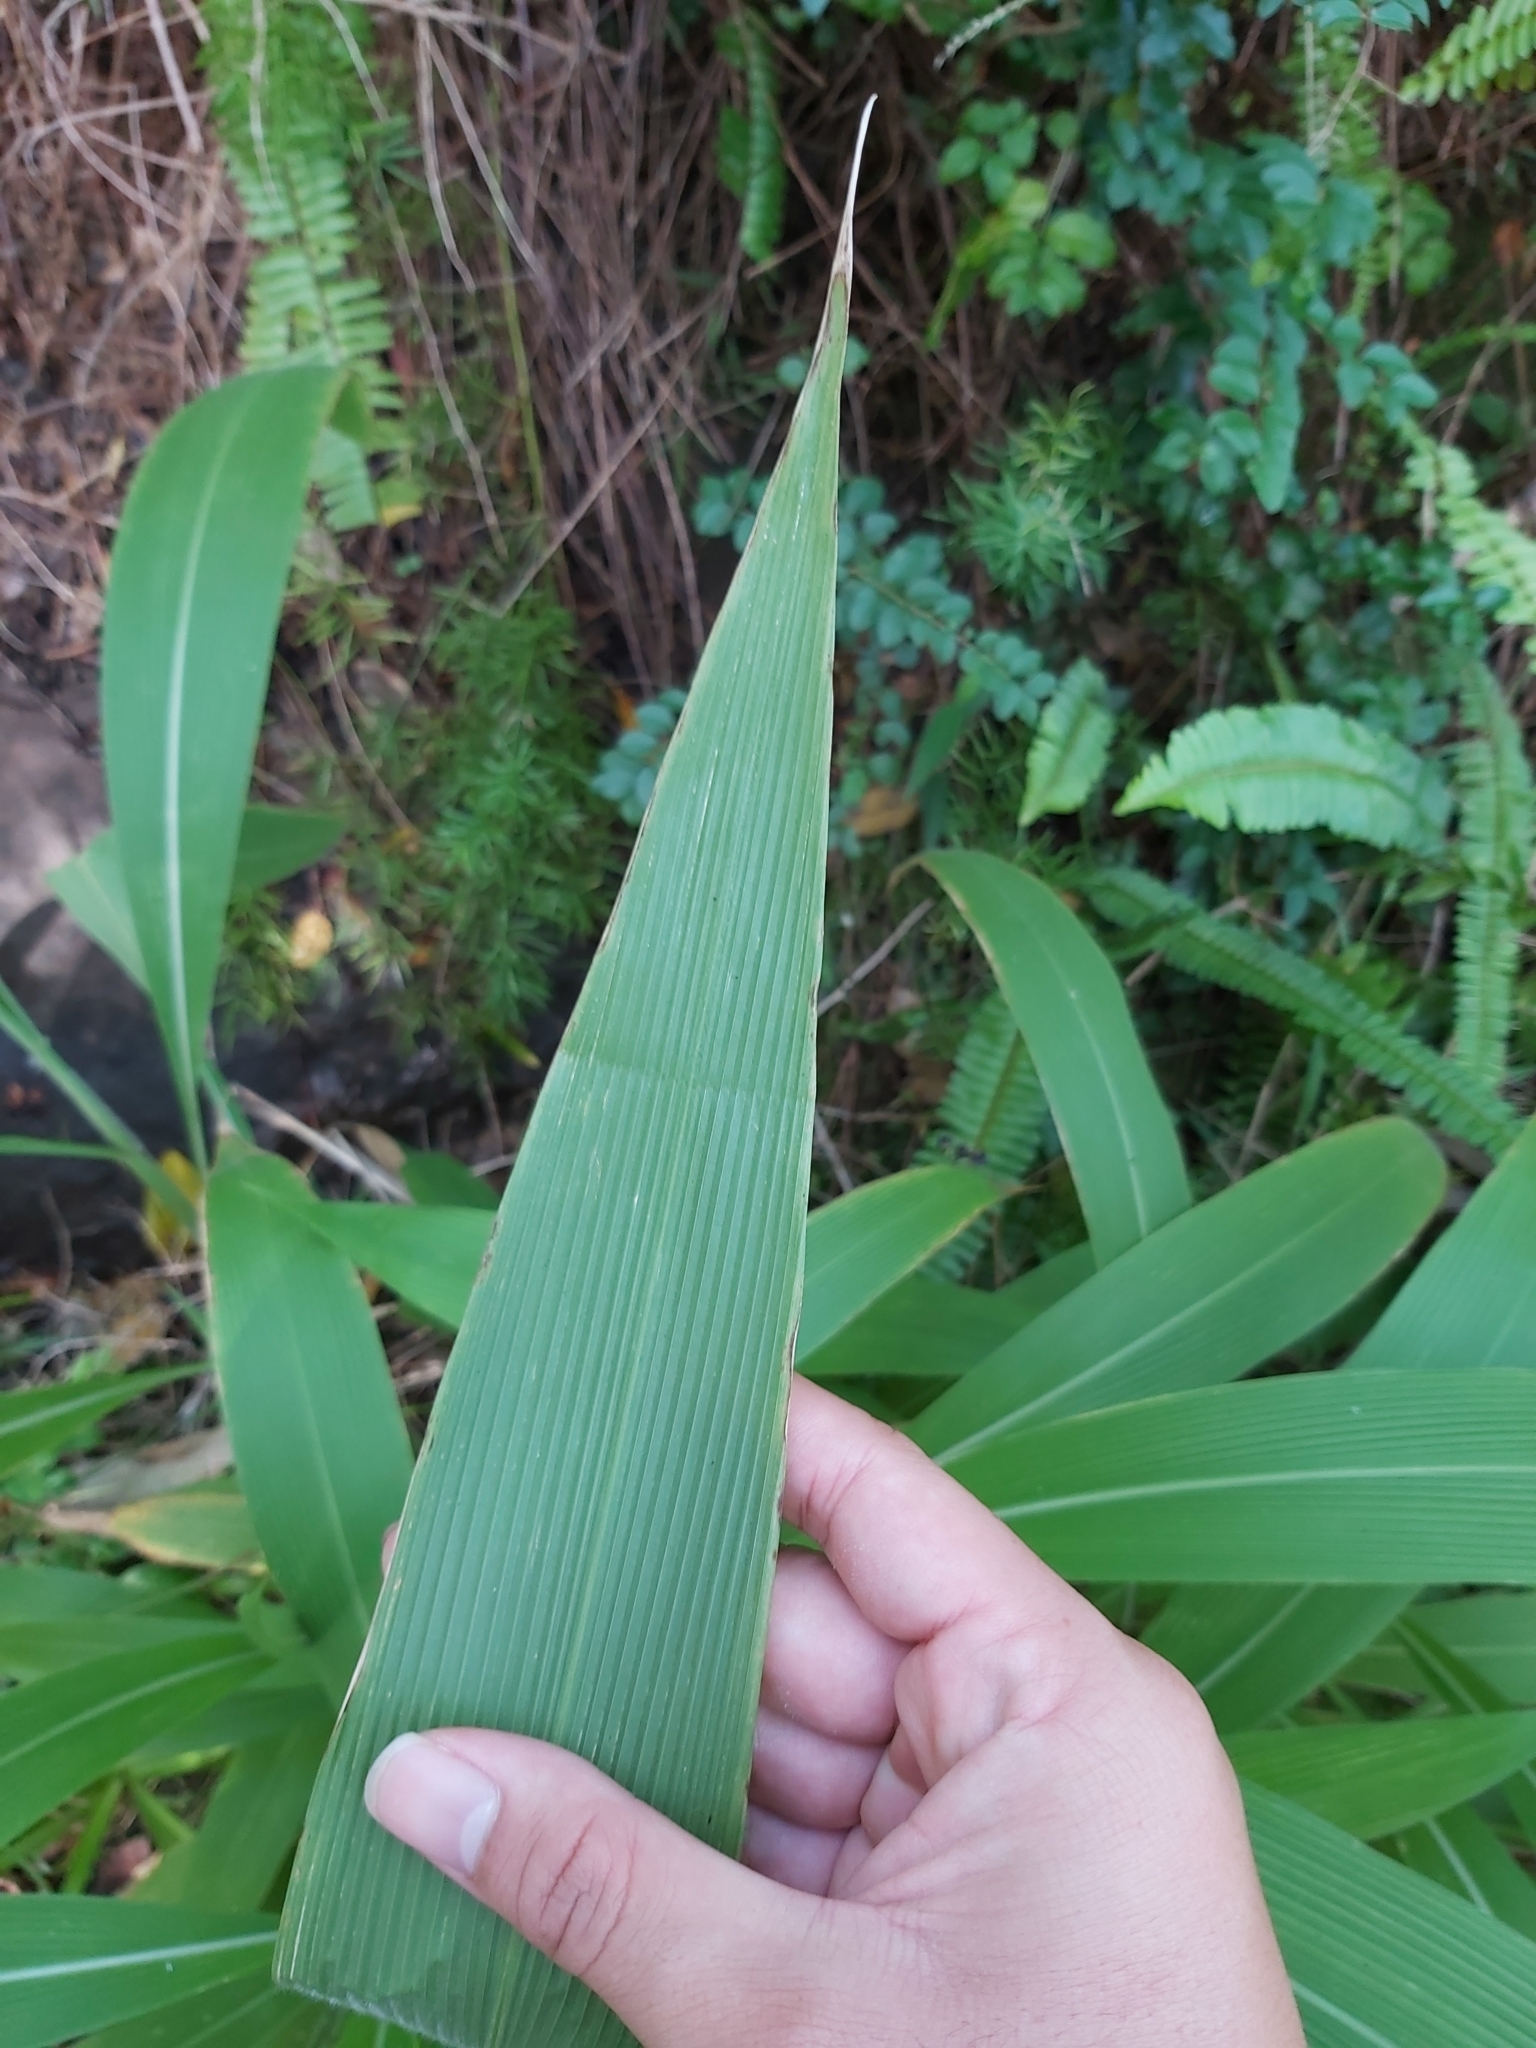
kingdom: Plantae
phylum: Tracheophyta
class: Liliopsida
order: Poales
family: Poaceae
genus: Setaria
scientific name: Setaria palmifolia
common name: Broadleaved bristlegrass
